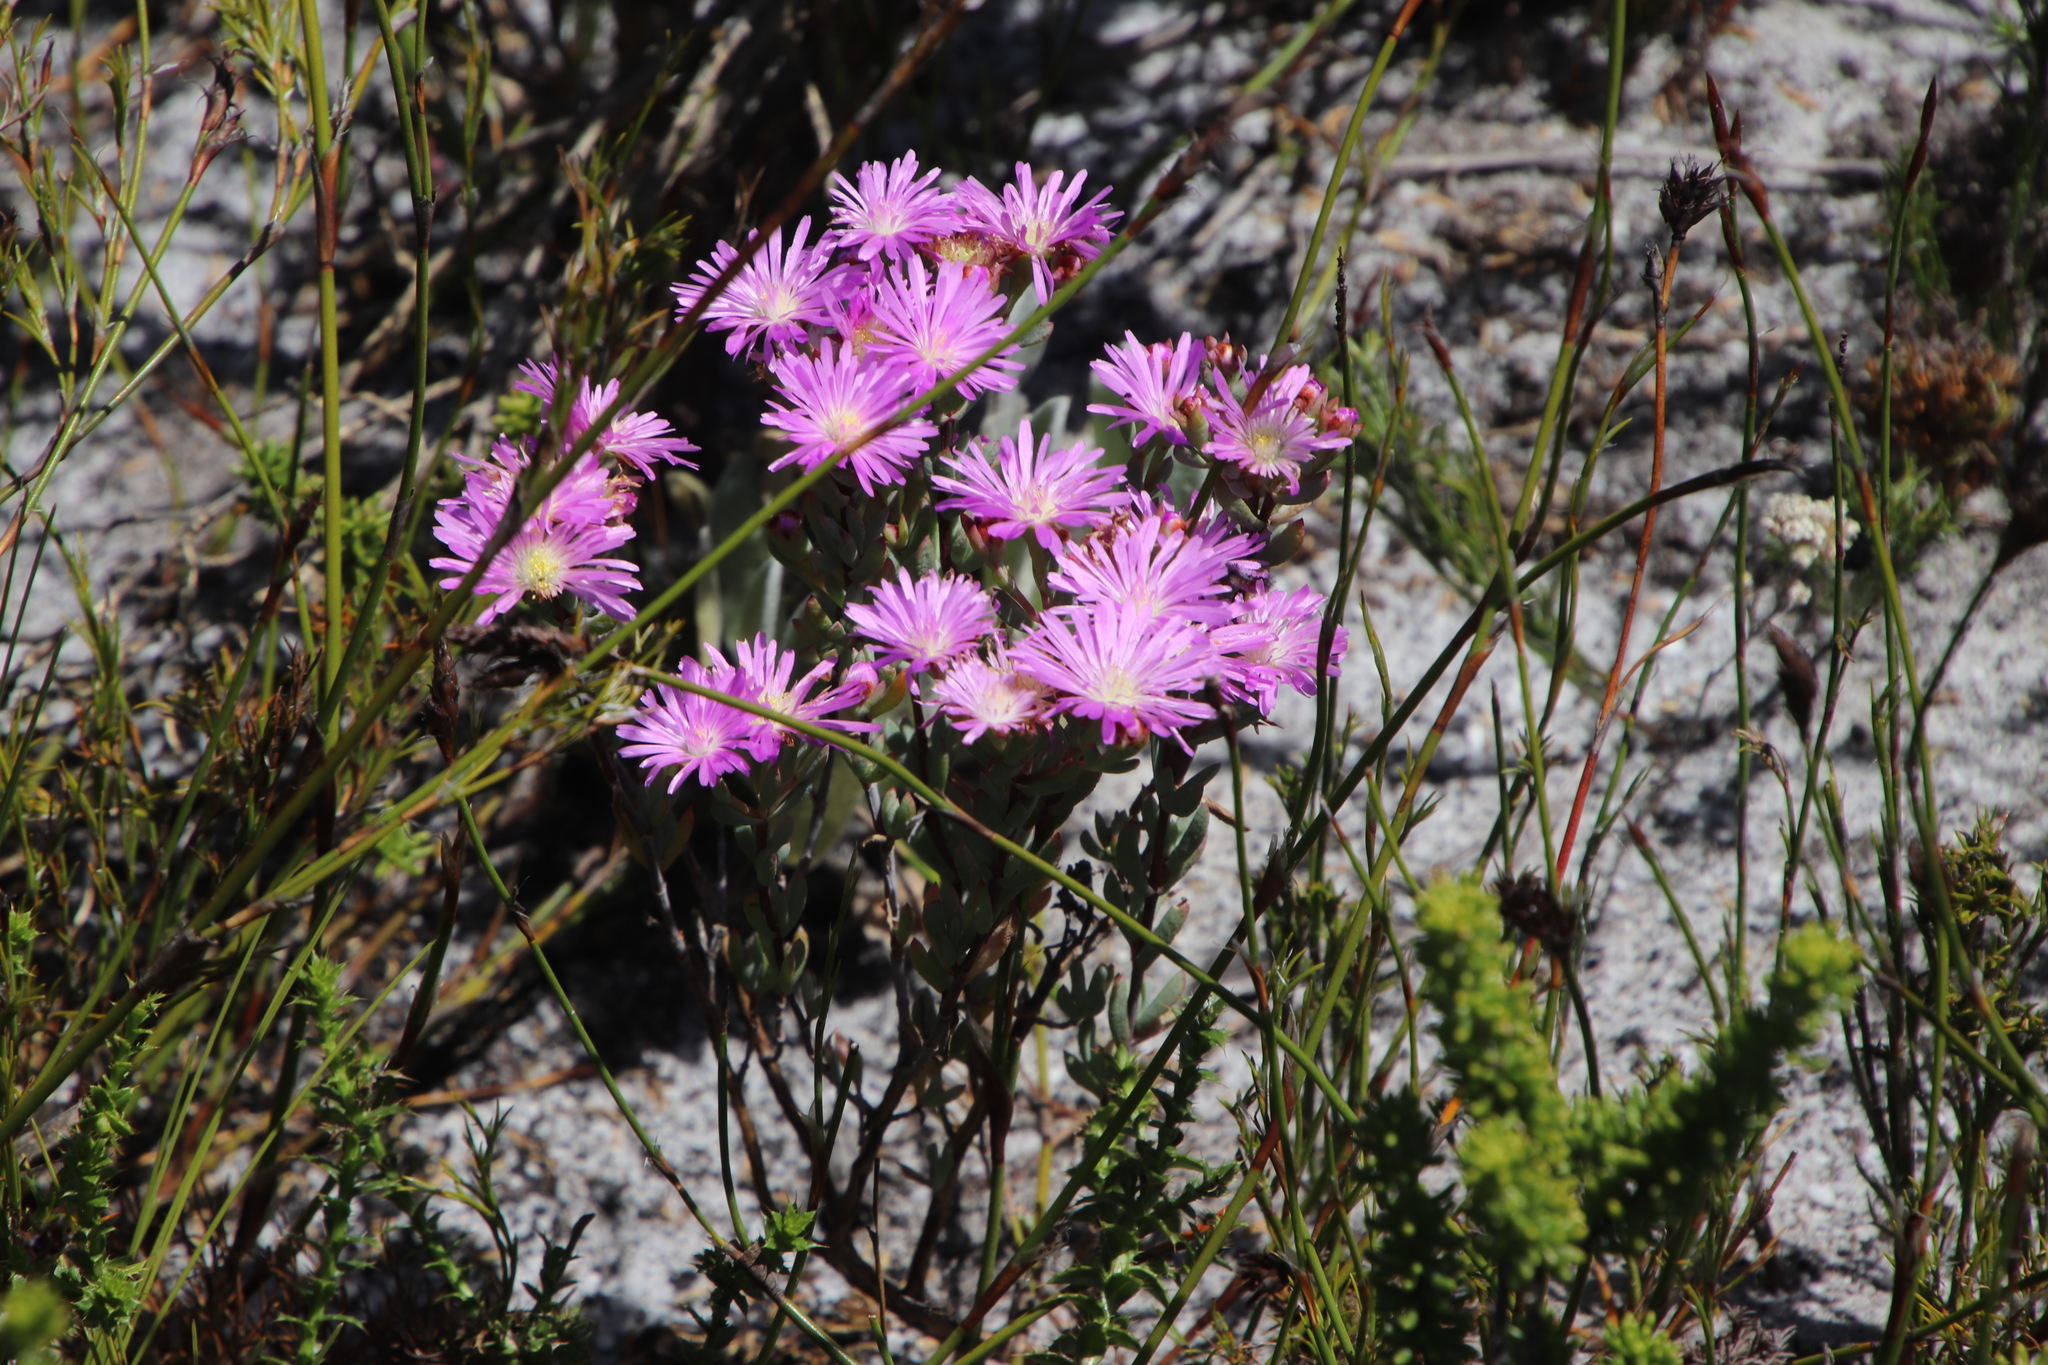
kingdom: Plantae
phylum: Tracheophyta
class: Magnoliopsida
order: Caryophyllales
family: Aizoaceae
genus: Lampranthus
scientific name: Lampranthus glomeratus
